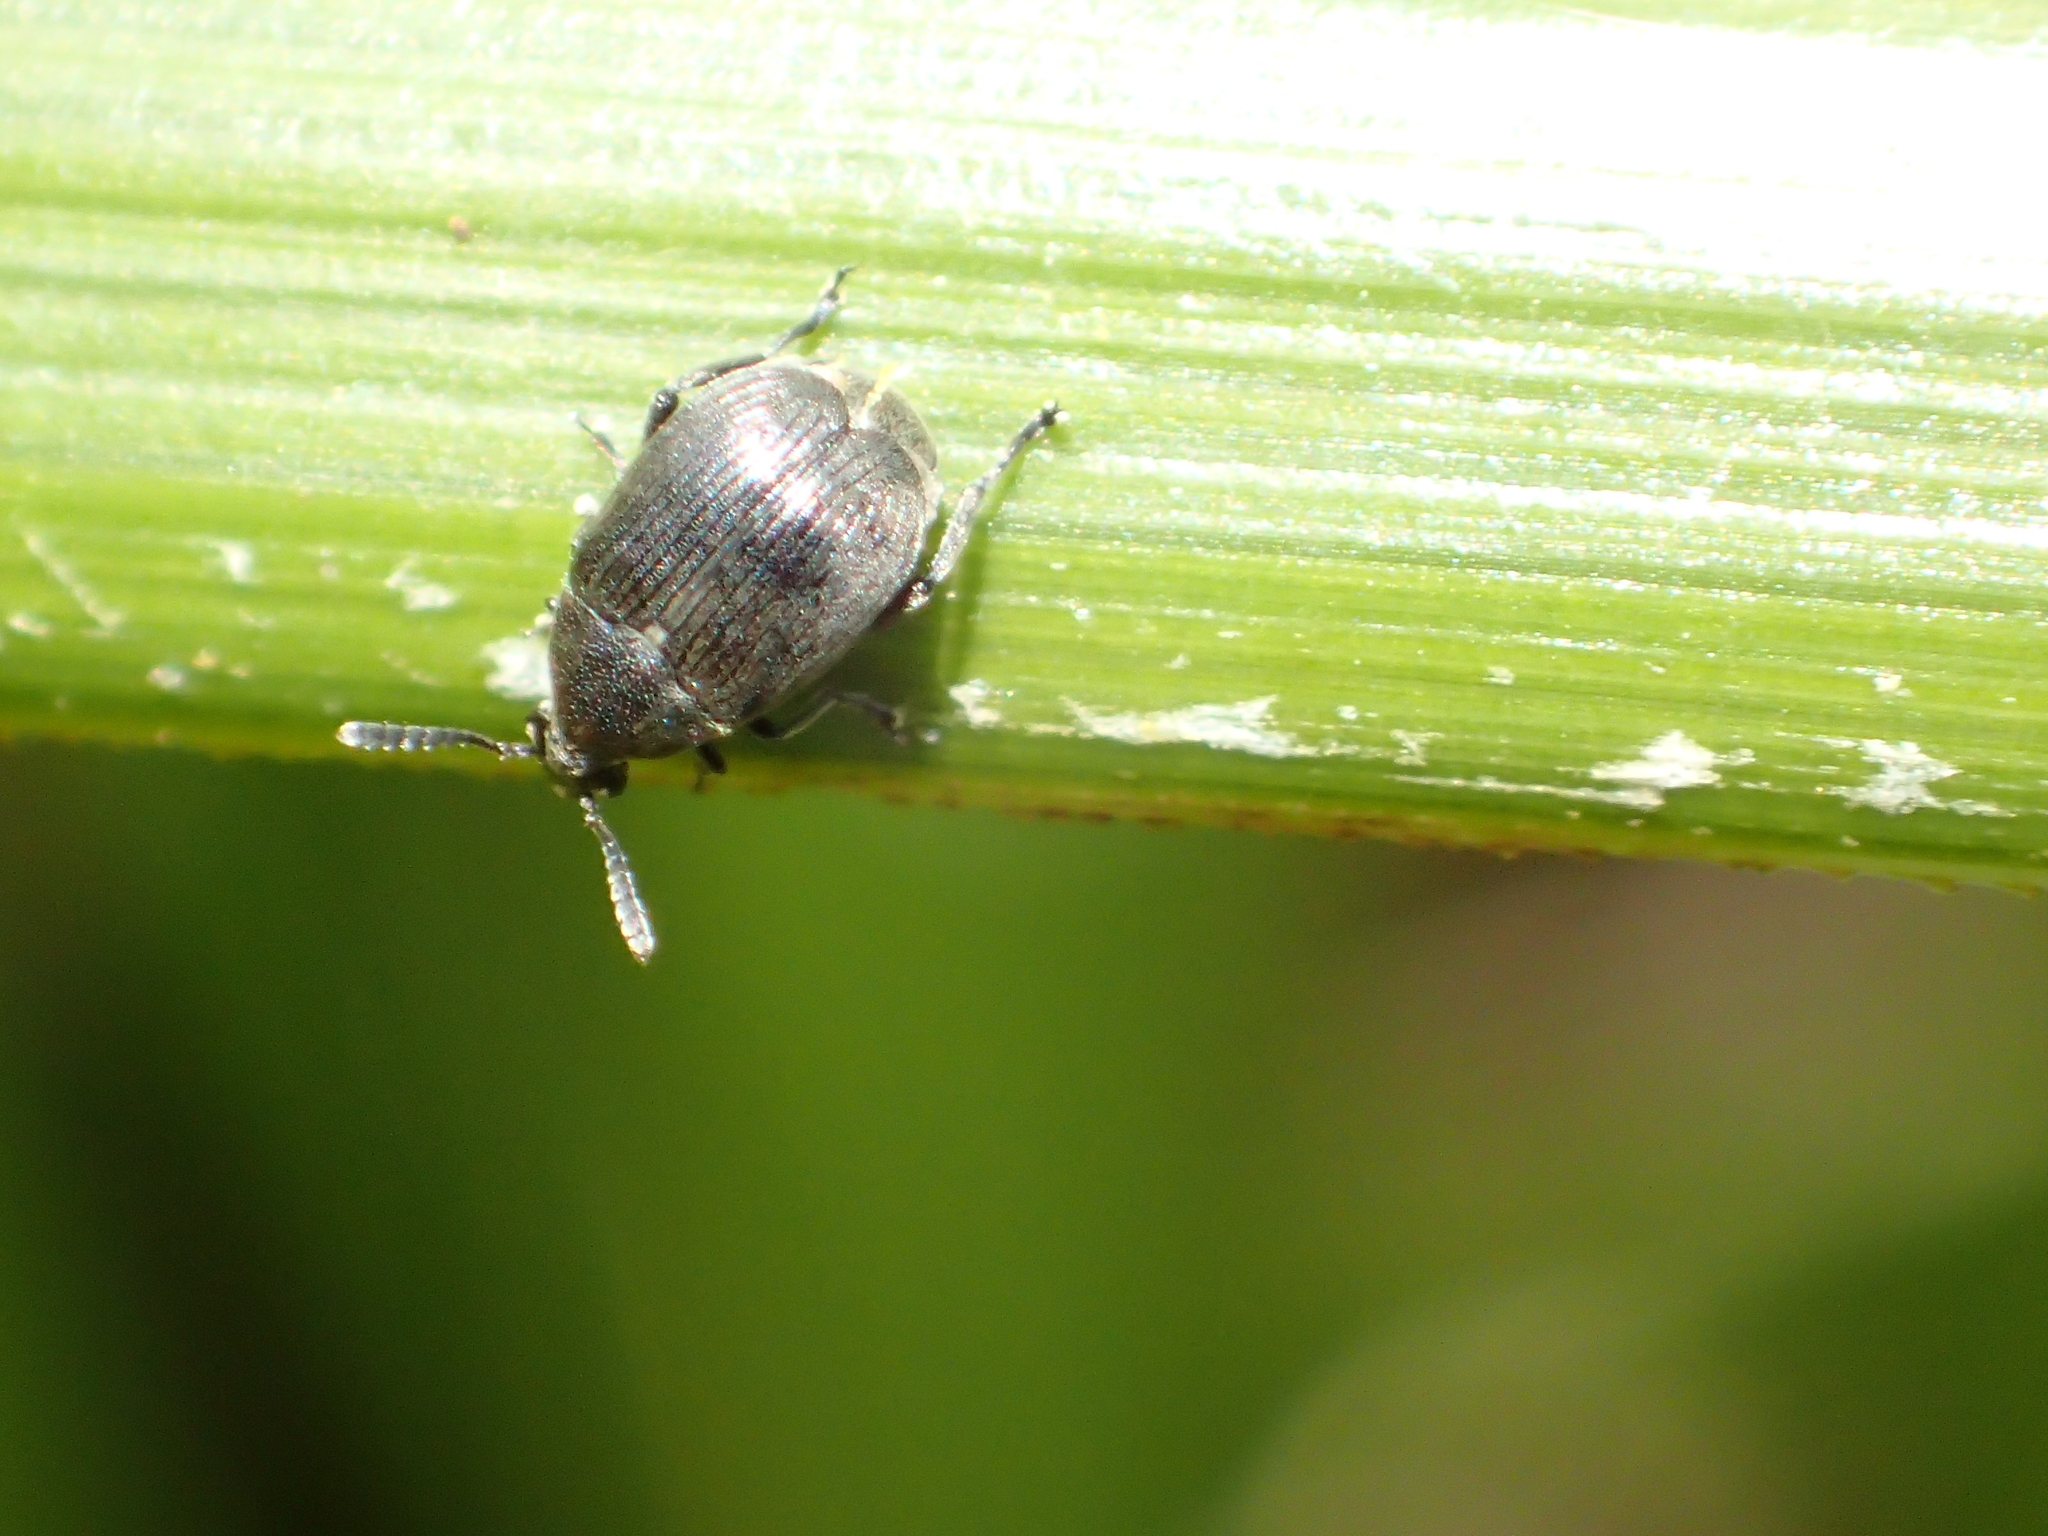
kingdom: Animalia
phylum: Arthropoda
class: Insecta
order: Coleoptera
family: Chrysomelidae
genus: Bruchidius
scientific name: Bruchidius villosus
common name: Scotch broom bruchid
